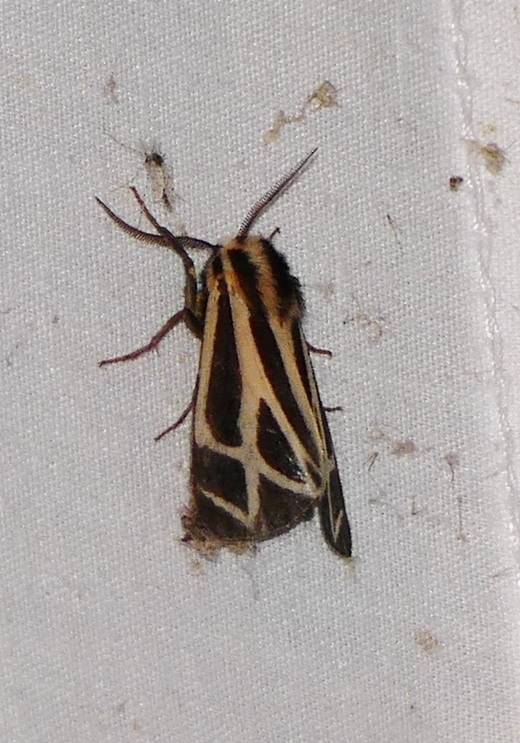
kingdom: Animalia
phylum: Arthropoda
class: Insecta
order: Lepidoptera
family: Erebidae
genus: Apantesis
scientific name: Apantesis phalerata
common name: Harnessed tiger moth
